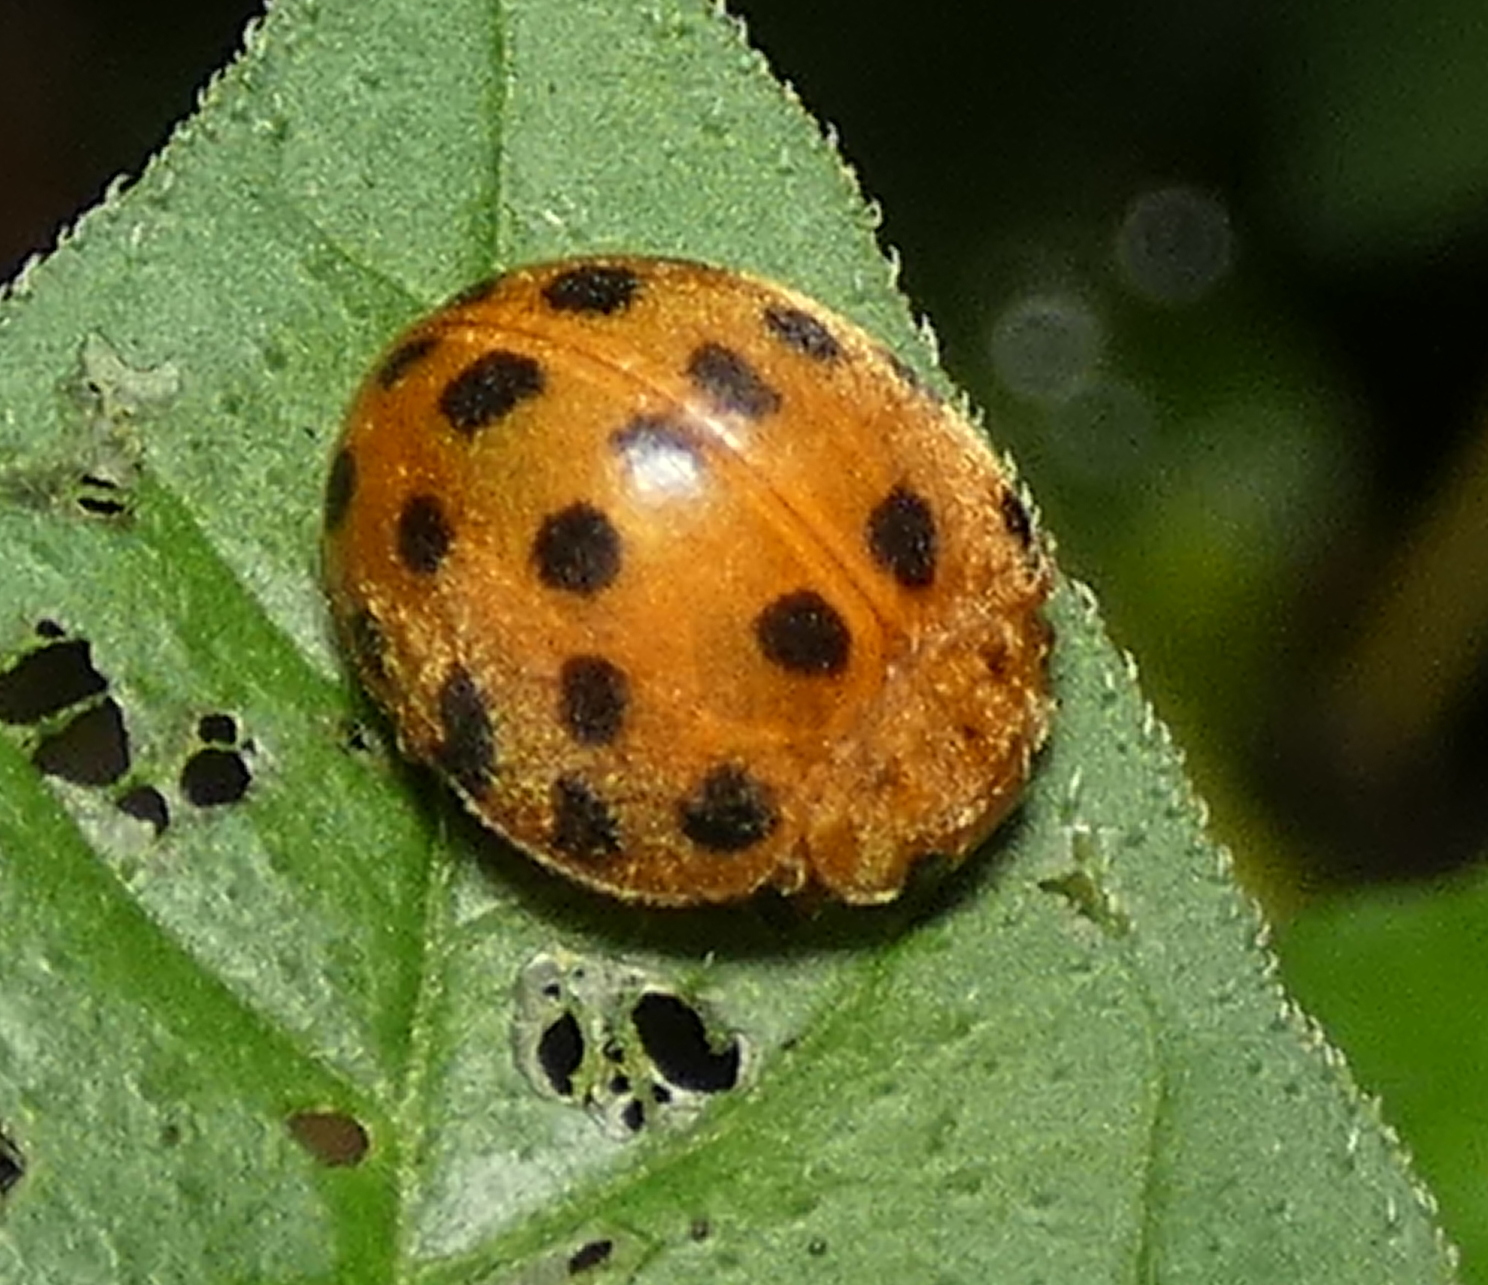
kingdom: Animalia
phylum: Arthropoda
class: Insecta
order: Coleoptera
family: Coccinellidae
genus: Henosepilachna
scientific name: Henosepilachna vigintioctopunctata
